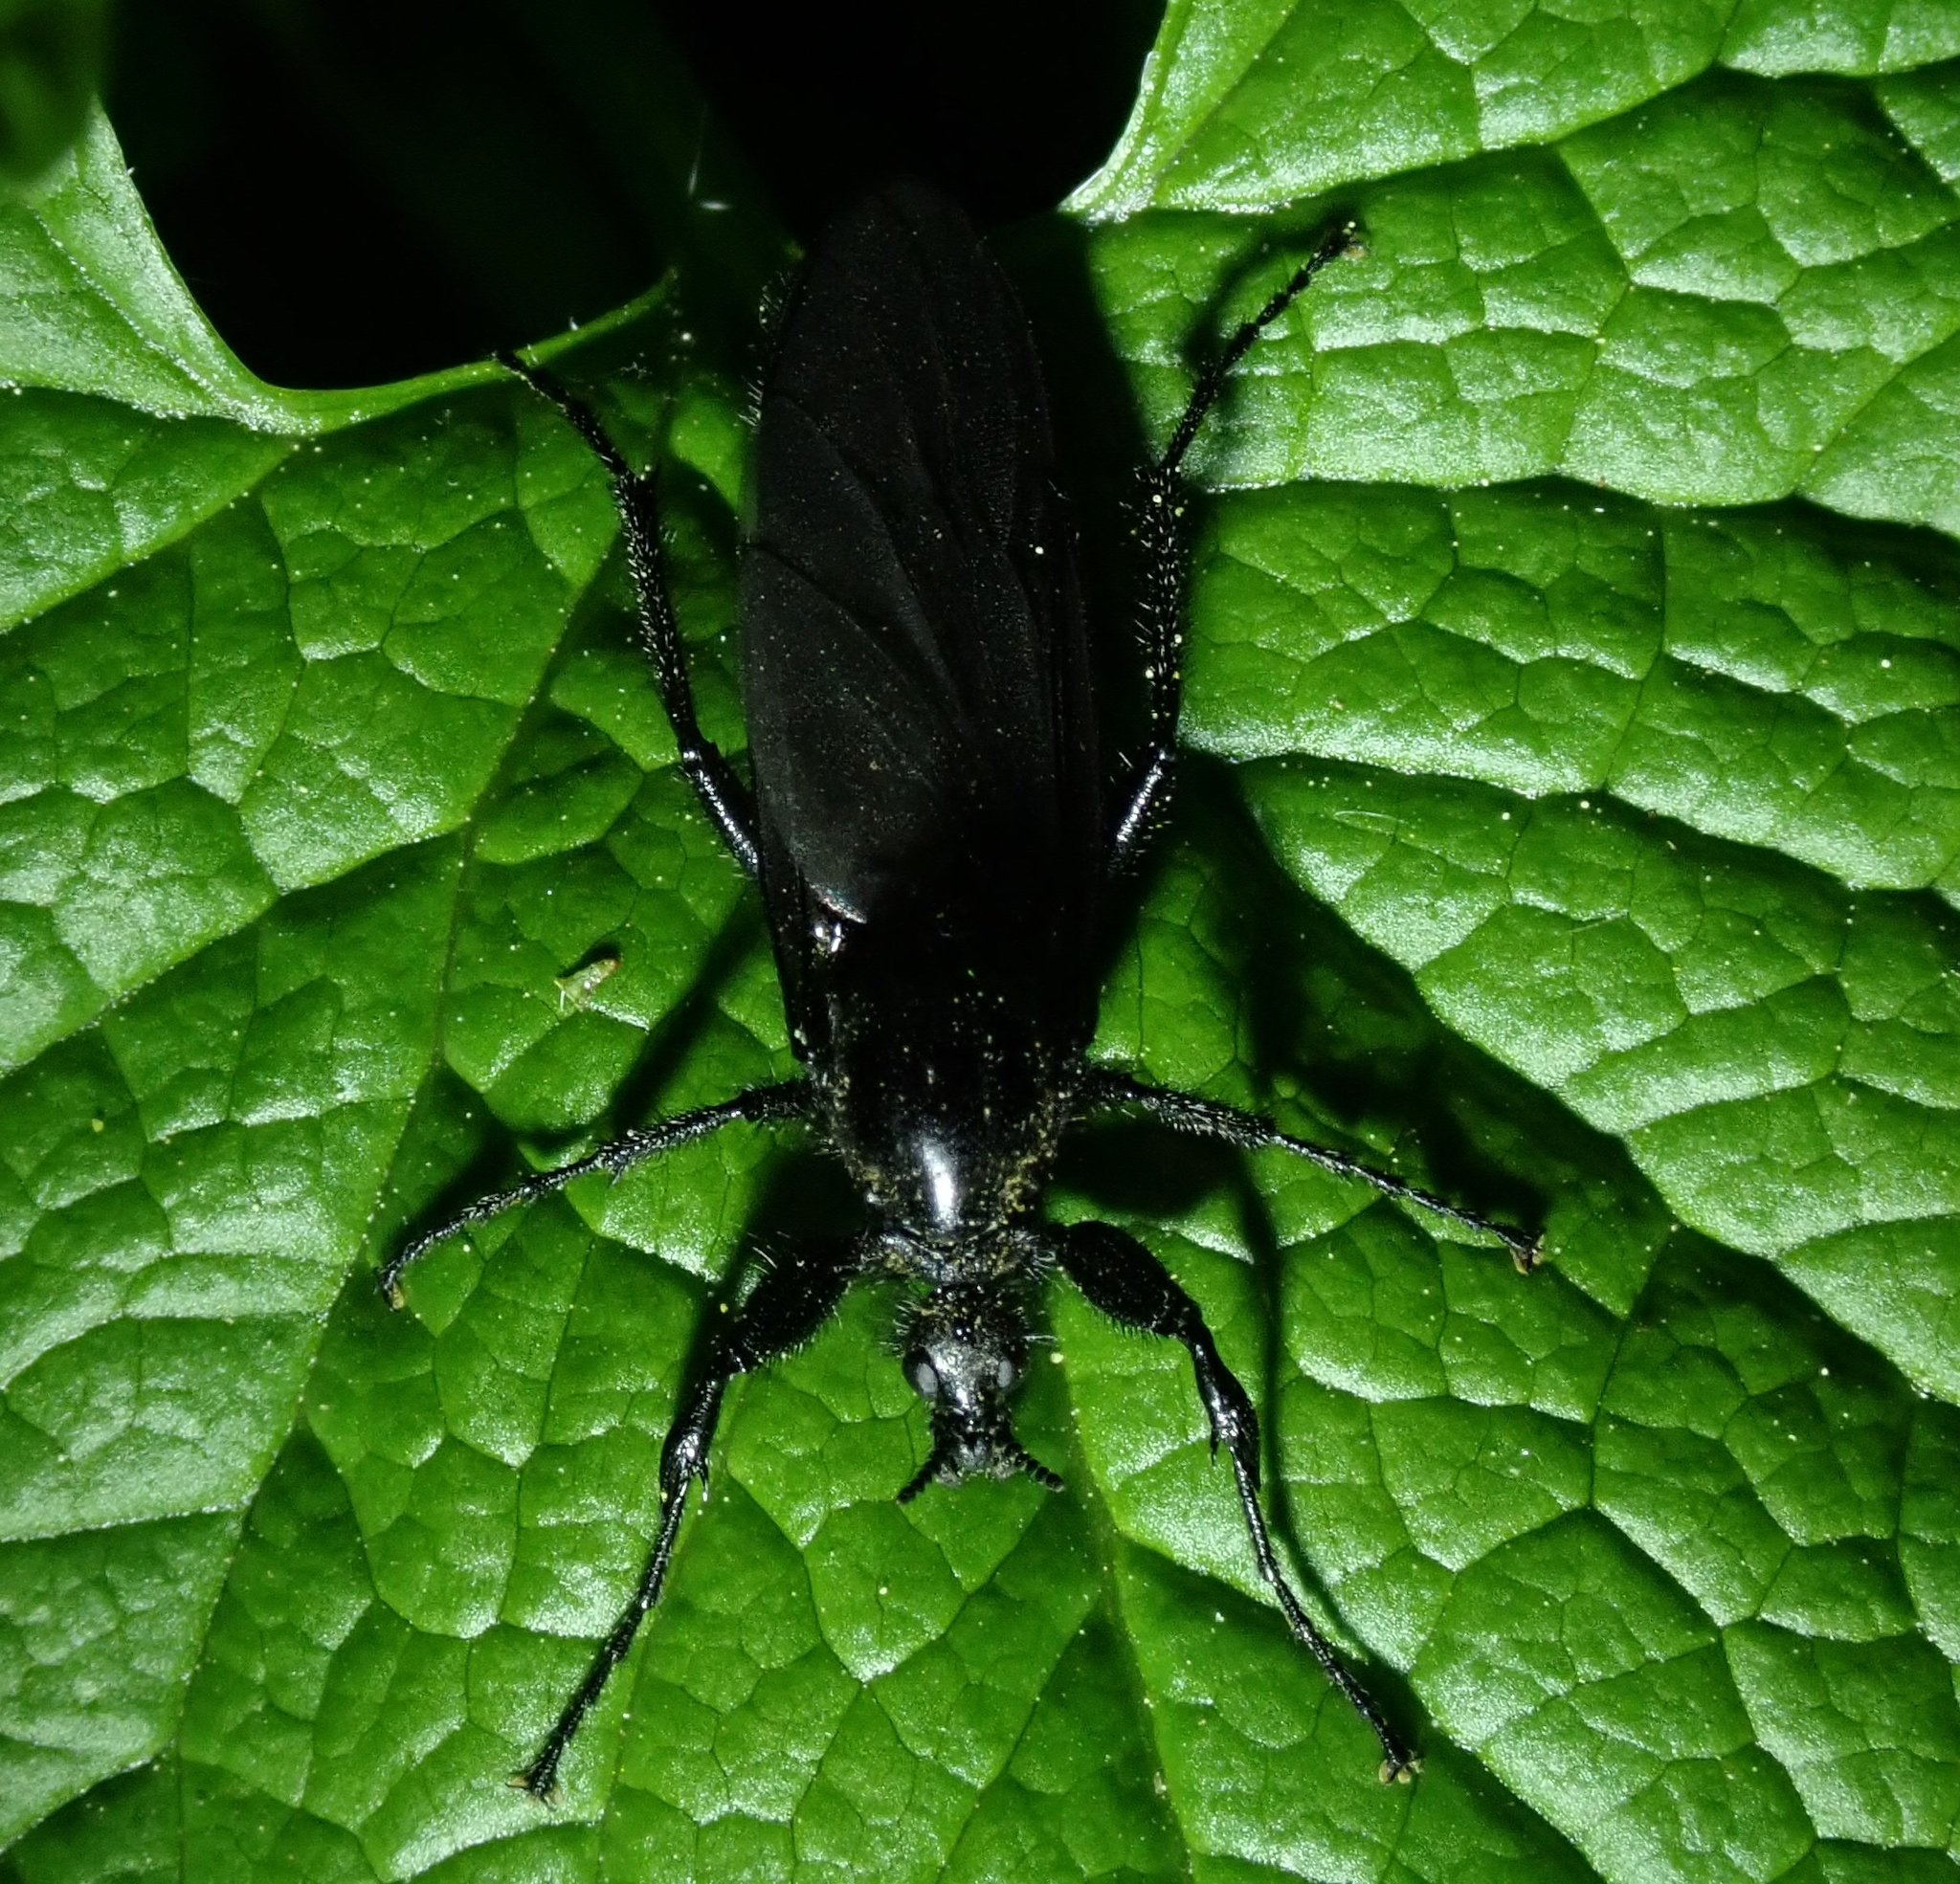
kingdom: Animalia
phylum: Arthropoda
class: Insecta
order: Diptera
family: Bibionidae
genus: Bibio
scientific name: Bibio marci
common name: St marks fly
